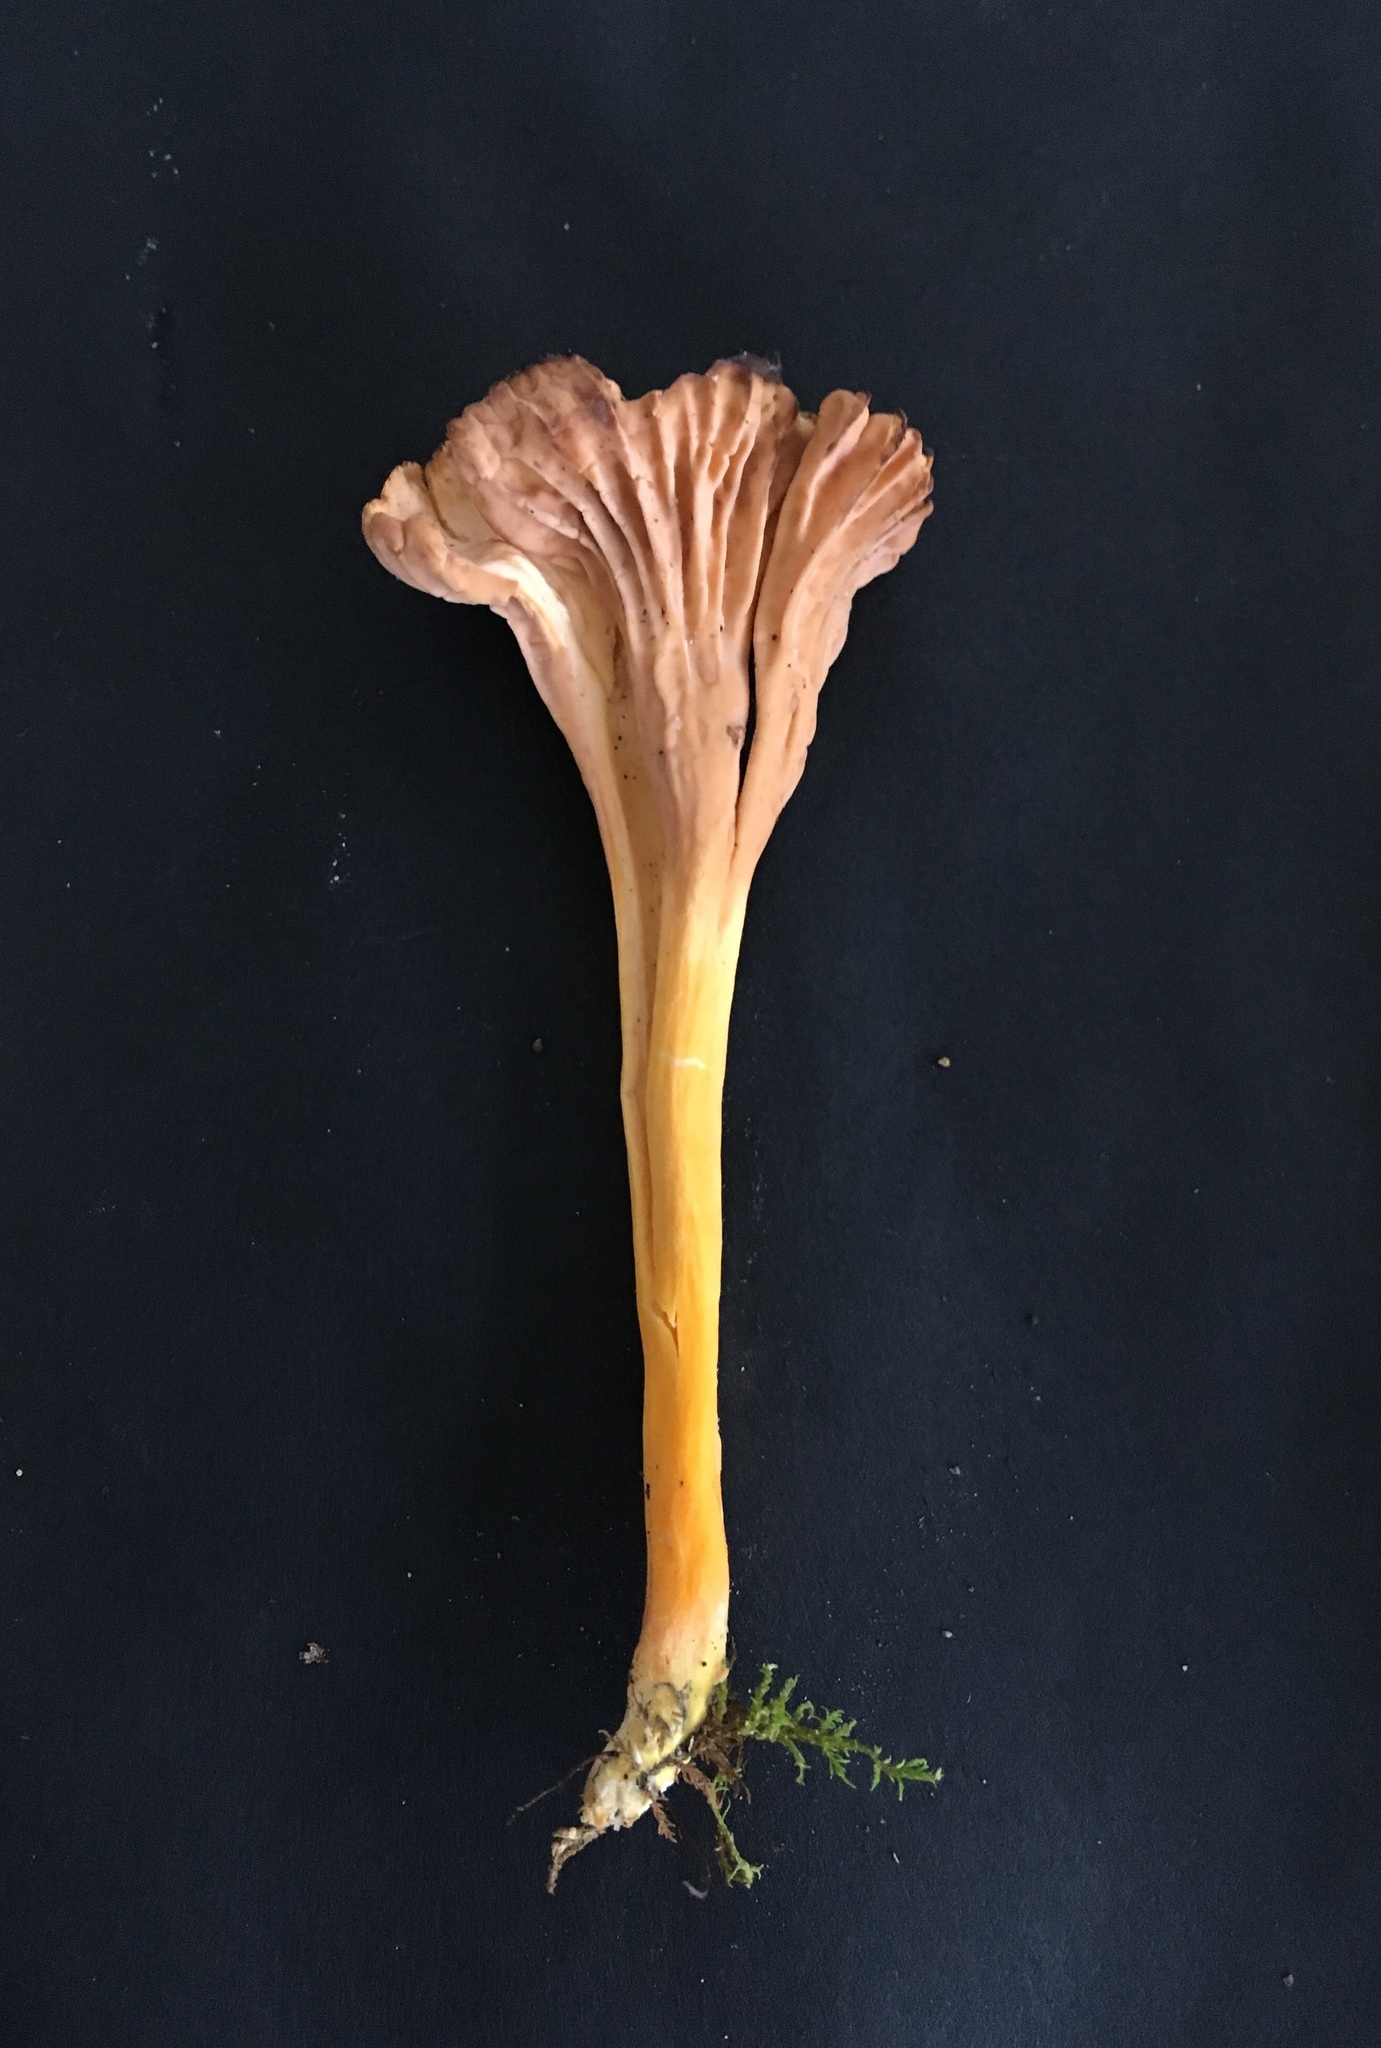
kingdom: Fungi
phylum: Basidiomycota
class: Agaricomycetes
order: Cantharellales
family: Hydnaceae
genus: Craterellus
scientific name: Craterellus tubaeformis
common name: Yellowfoot
